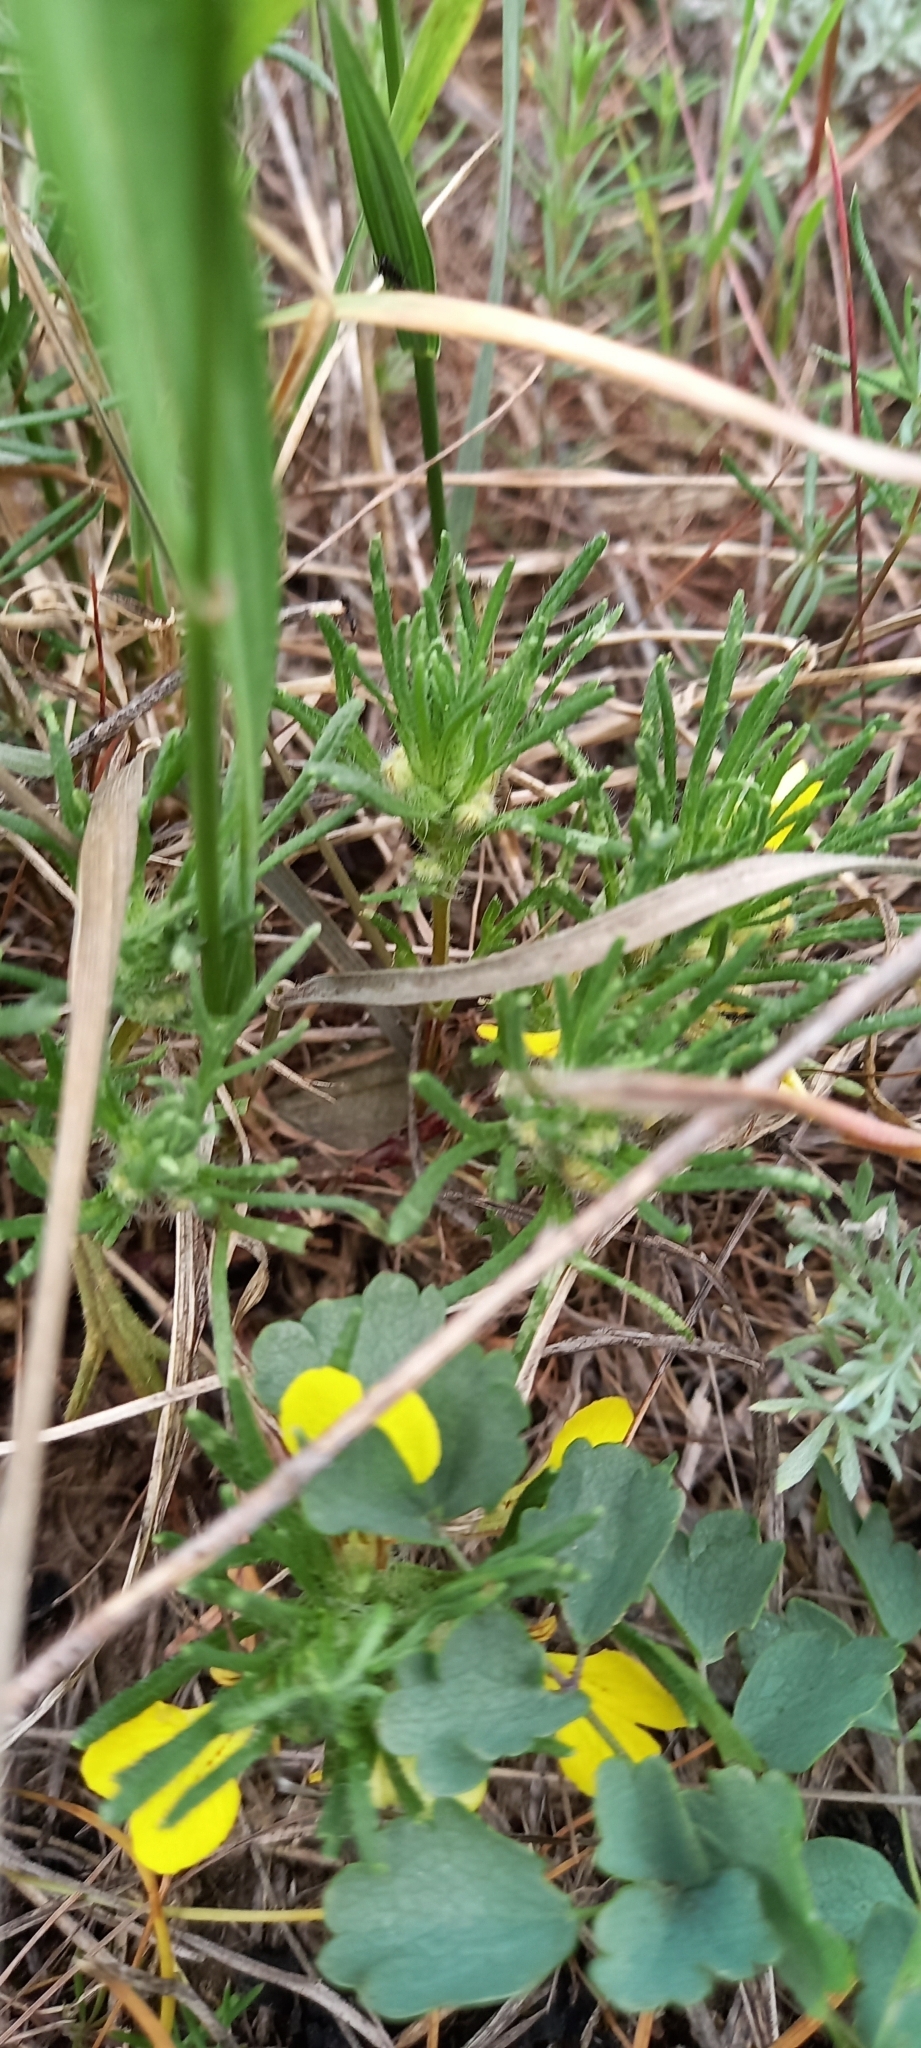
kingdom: Plantae
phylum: Tracheophyta
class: Magnoliopsida
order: Lamiales
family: Lamiaceae
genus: Ajuga
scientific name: Ajuga chamaepitys
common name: Ground-pine
